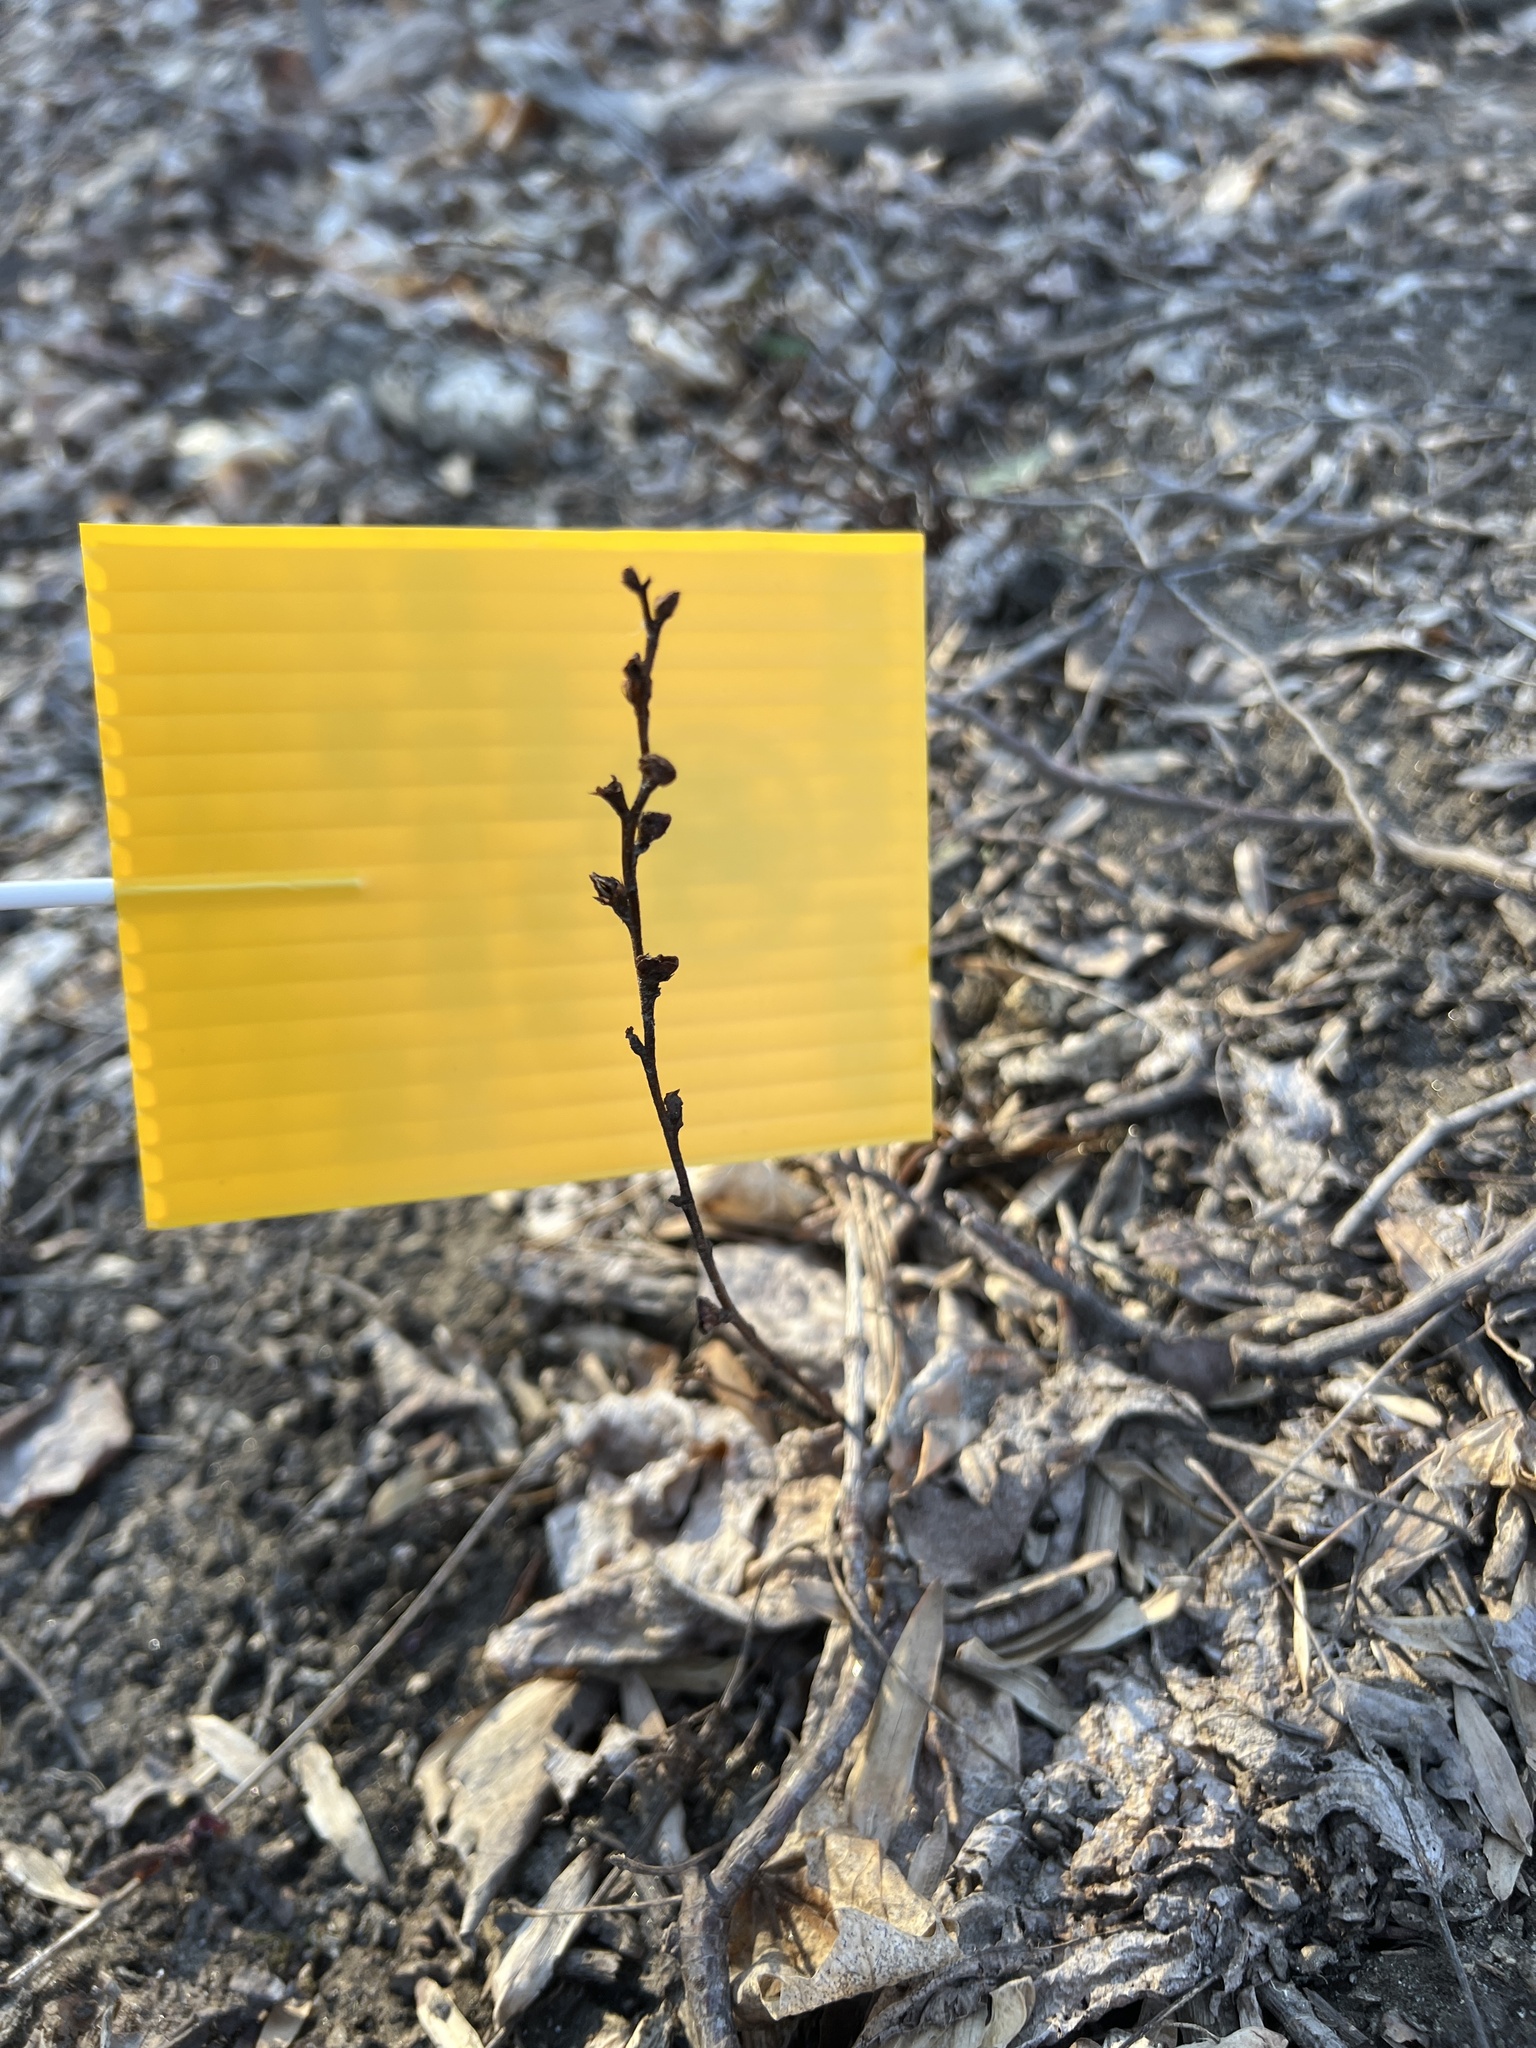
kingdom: Plantae
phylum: Tracheophyta
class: Magnoliopsida
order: Lamiales
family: Orobanchaceae
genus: Epifagus
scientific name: Epifagus virginiana
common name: Beechdrops
